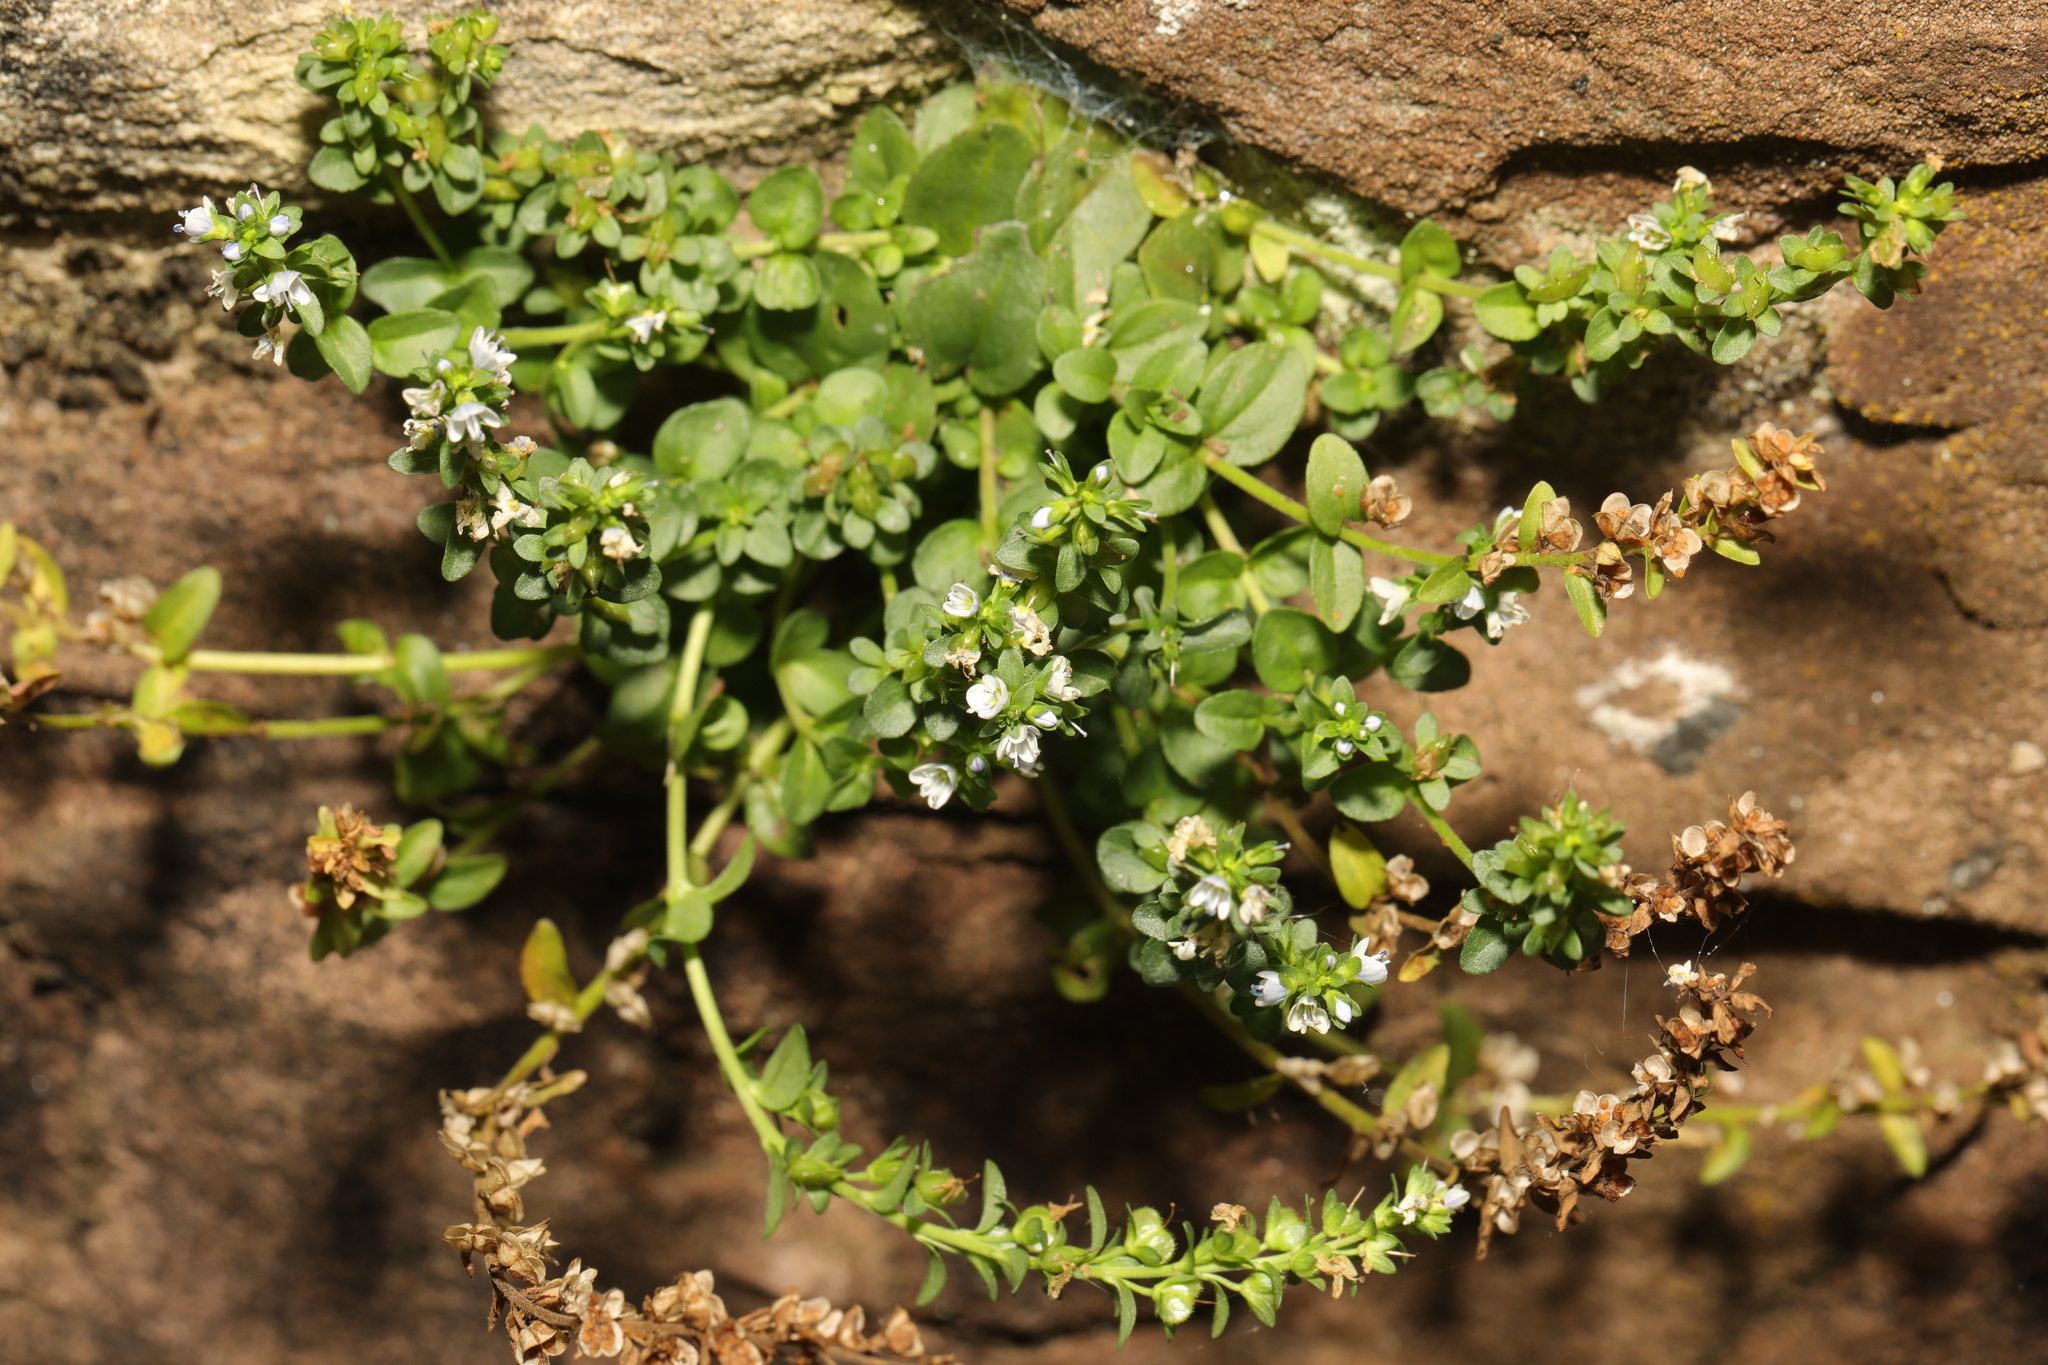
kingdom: Plantae
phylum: Tracheophyta
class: Magnoliopsida
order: Lamiales
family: Plantaginaceae
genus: Veronica
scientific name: Veronica serpyllifolia
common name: Thyme-leaved speedwell
